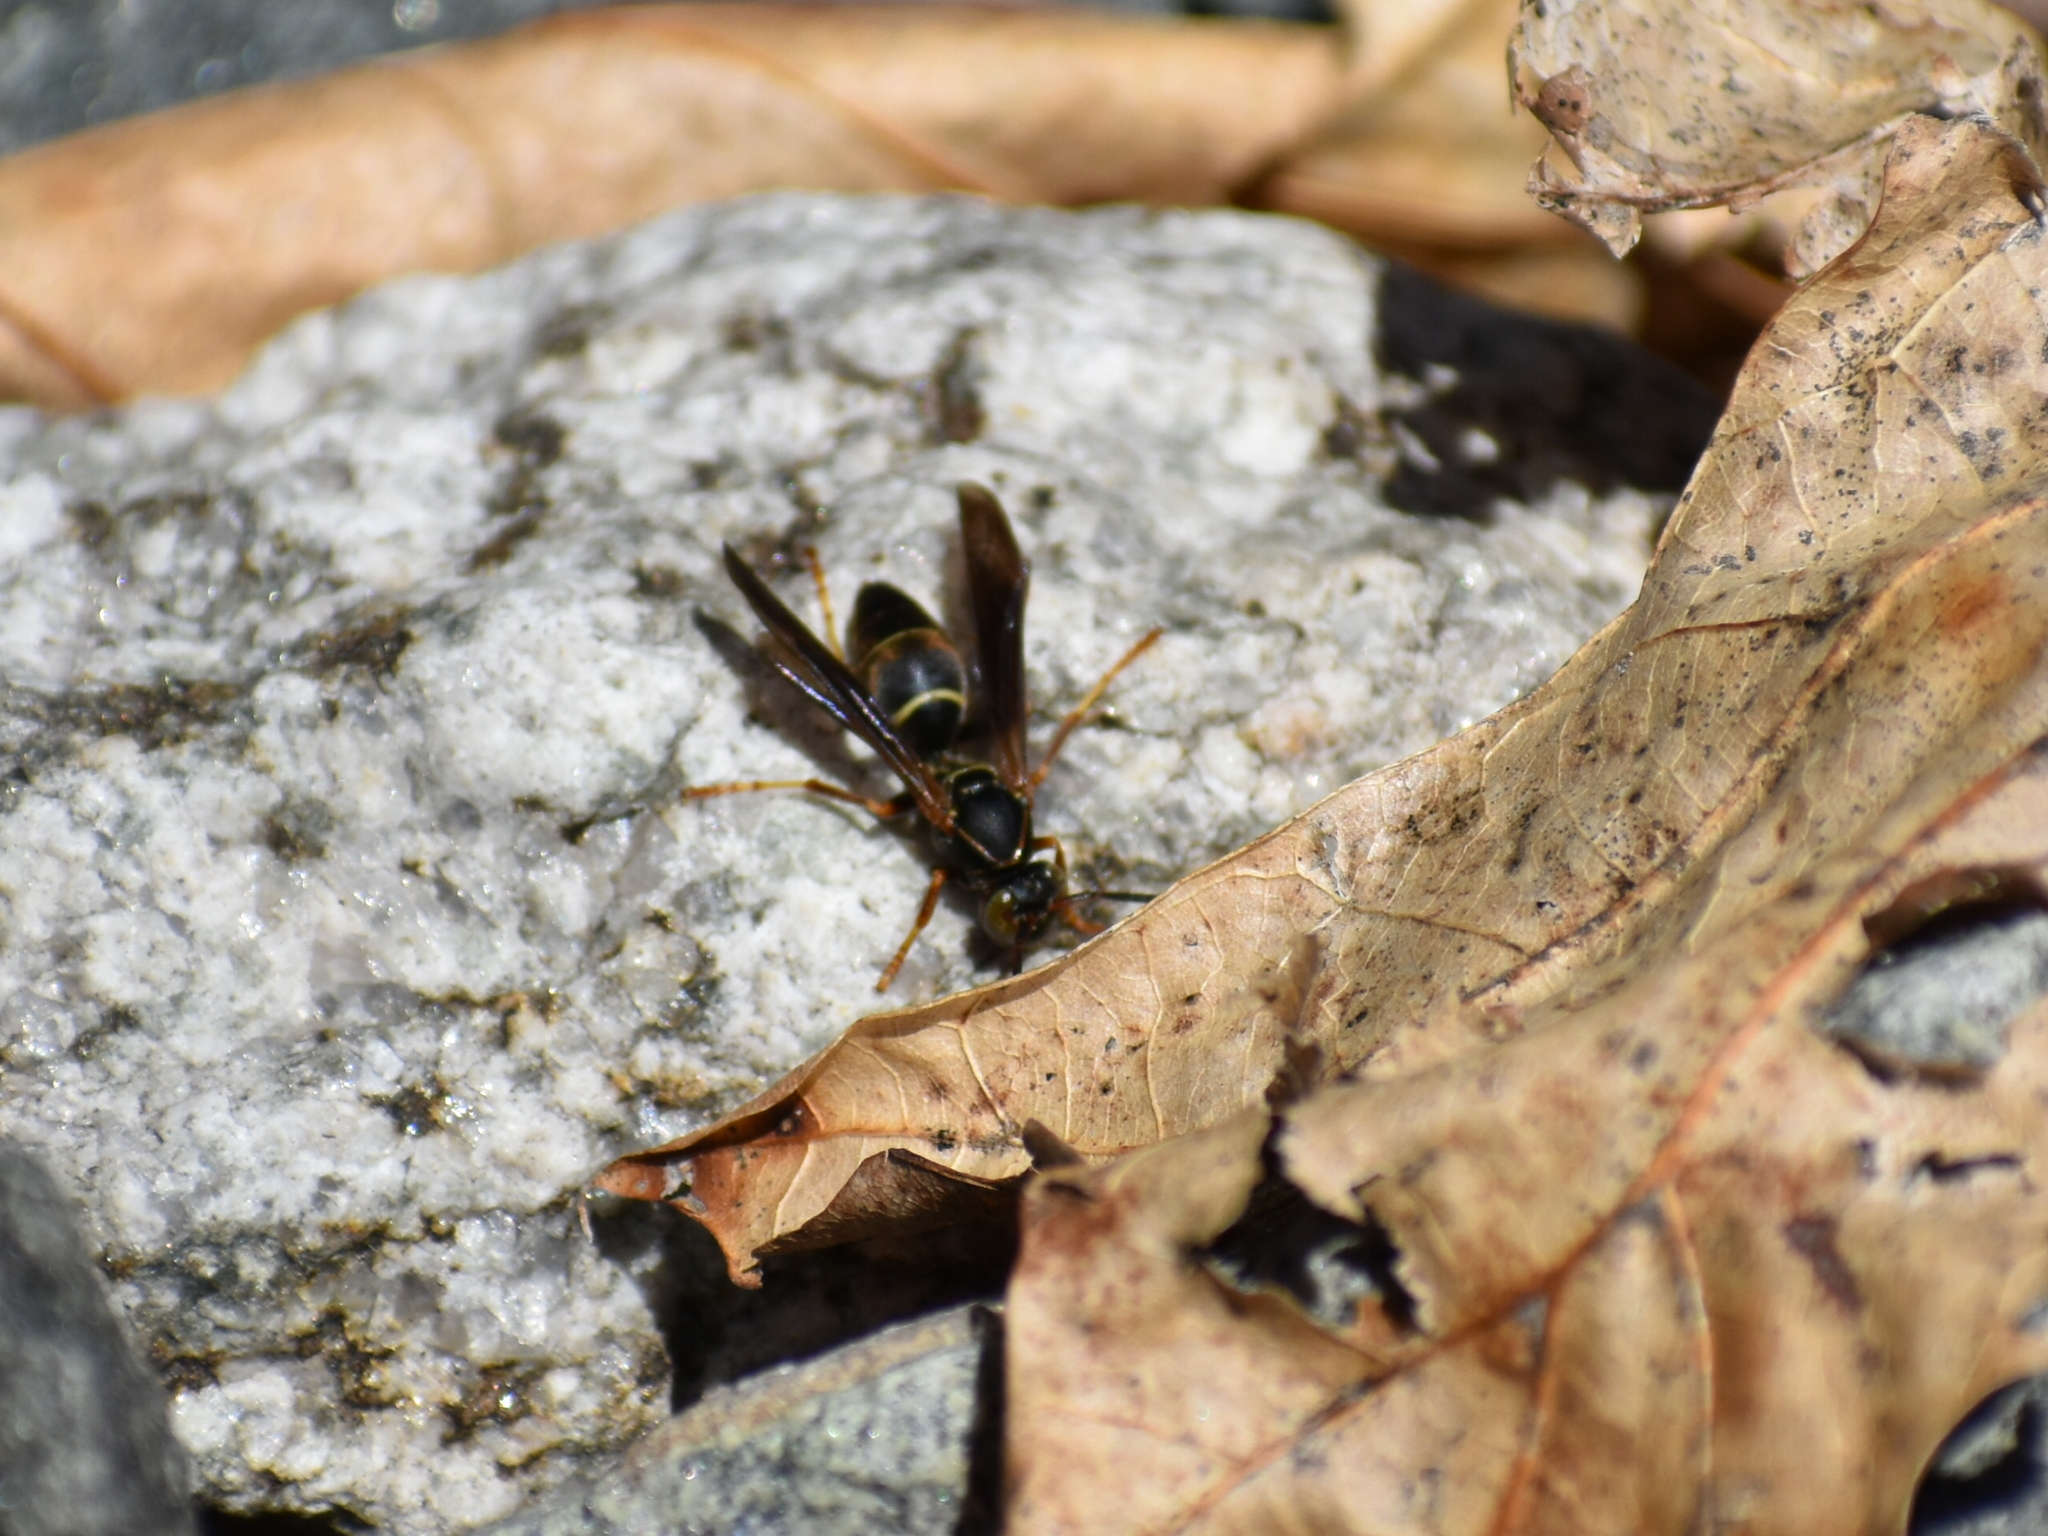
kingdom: Animalia
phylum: Arthropoda
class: Insecta
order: Hymenoptera
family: Eumenidae
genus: Polistes
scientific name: Polistes fuscatus
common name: Dark paper wasp
